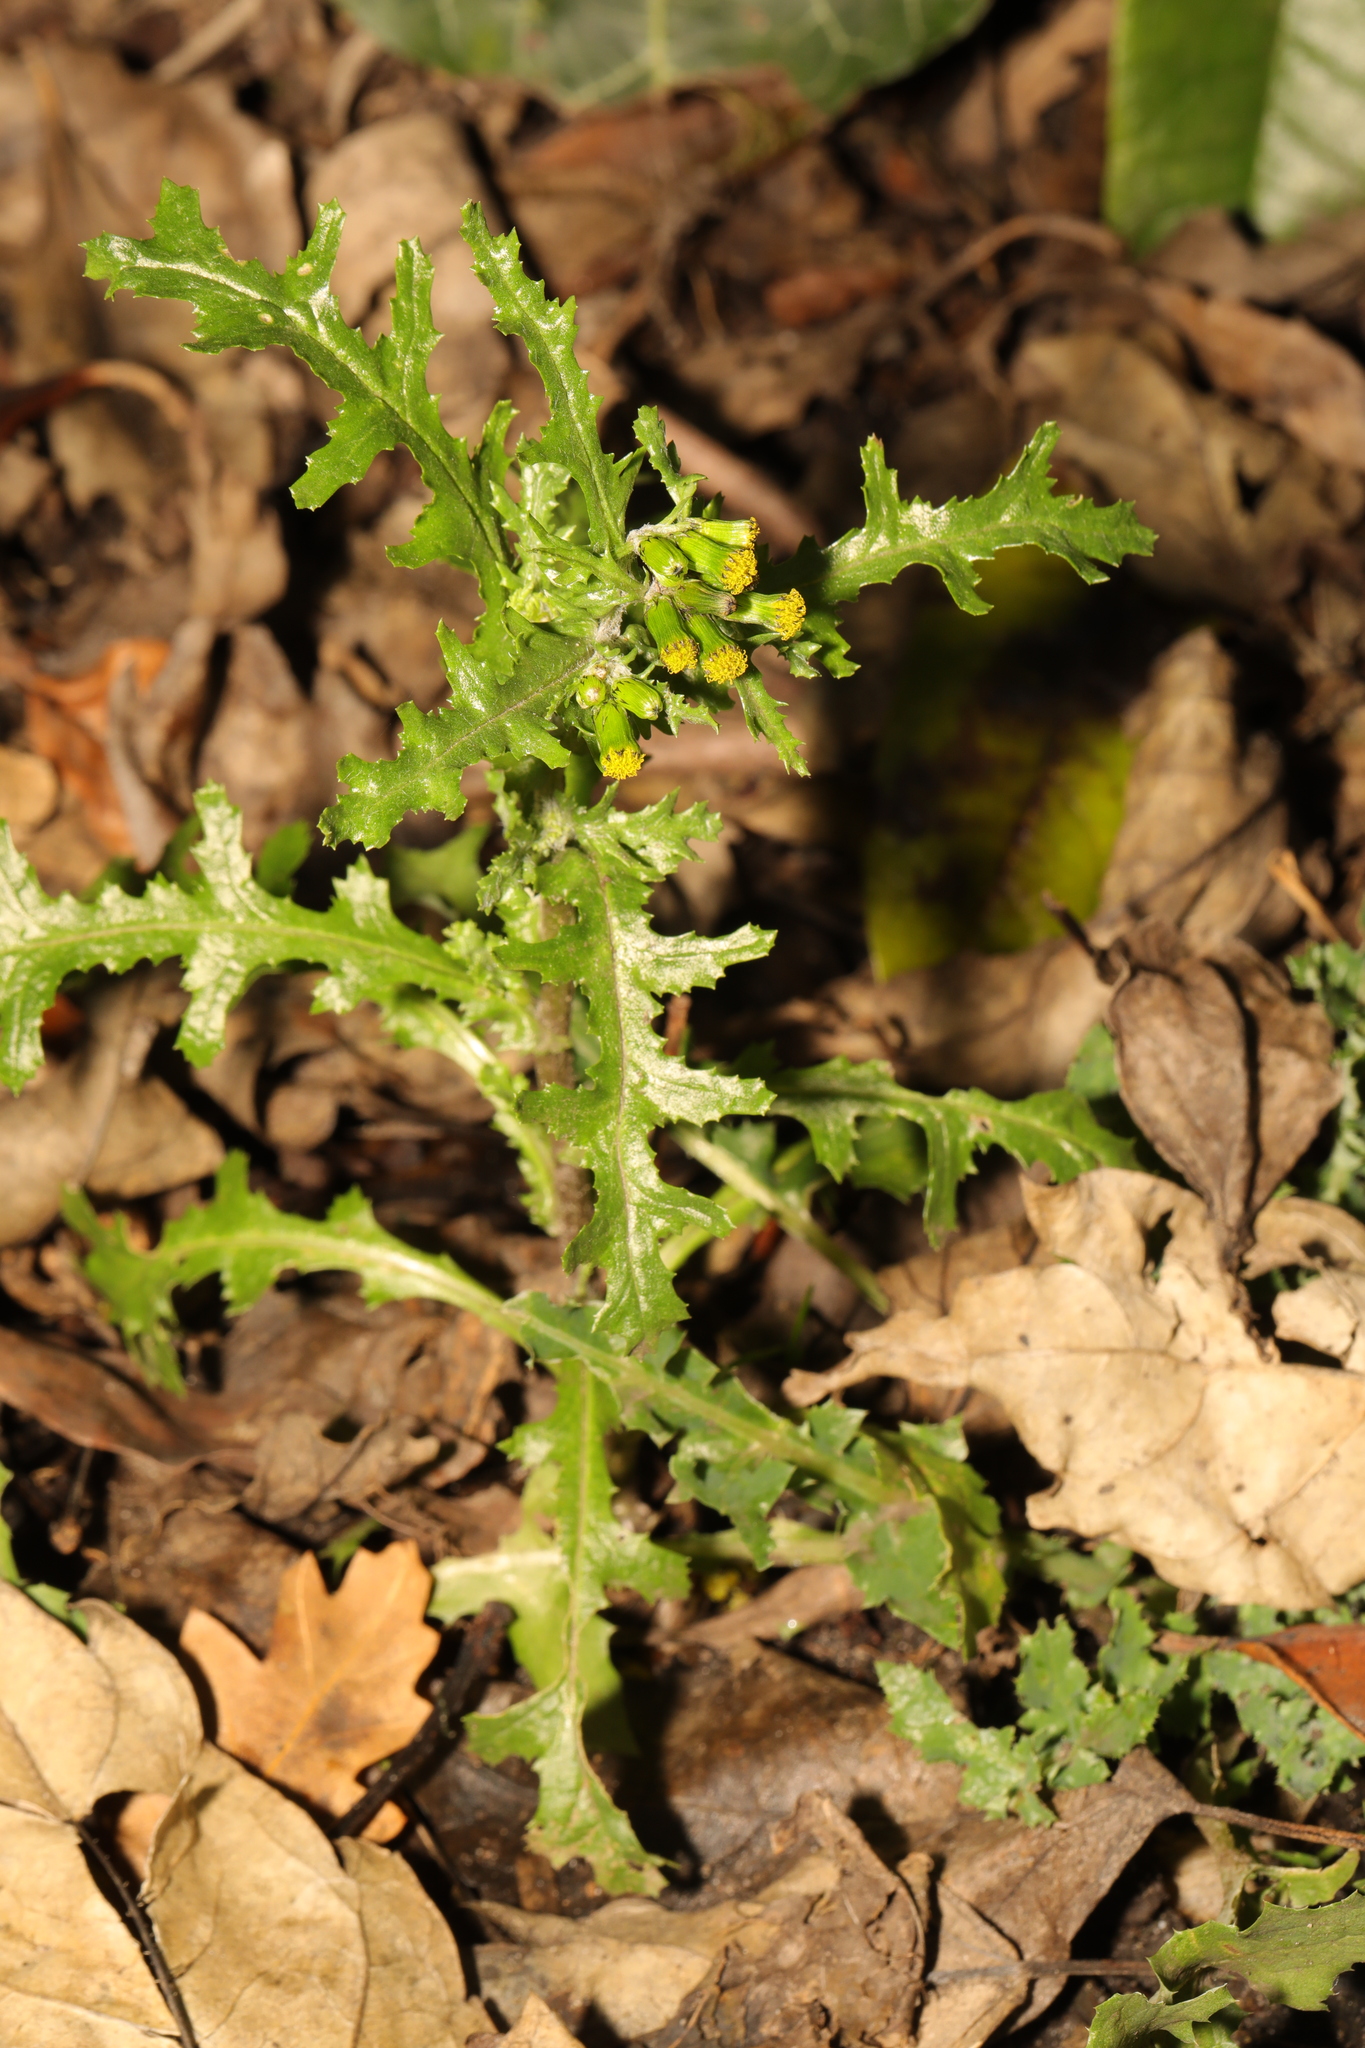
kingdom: Plantae
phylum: Tracheophyta
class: Magnoliopsida
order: Asterales
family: Asteraceae
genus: Senecio
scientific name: Senecio vulgaris
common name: Old-man-in-the-spring
